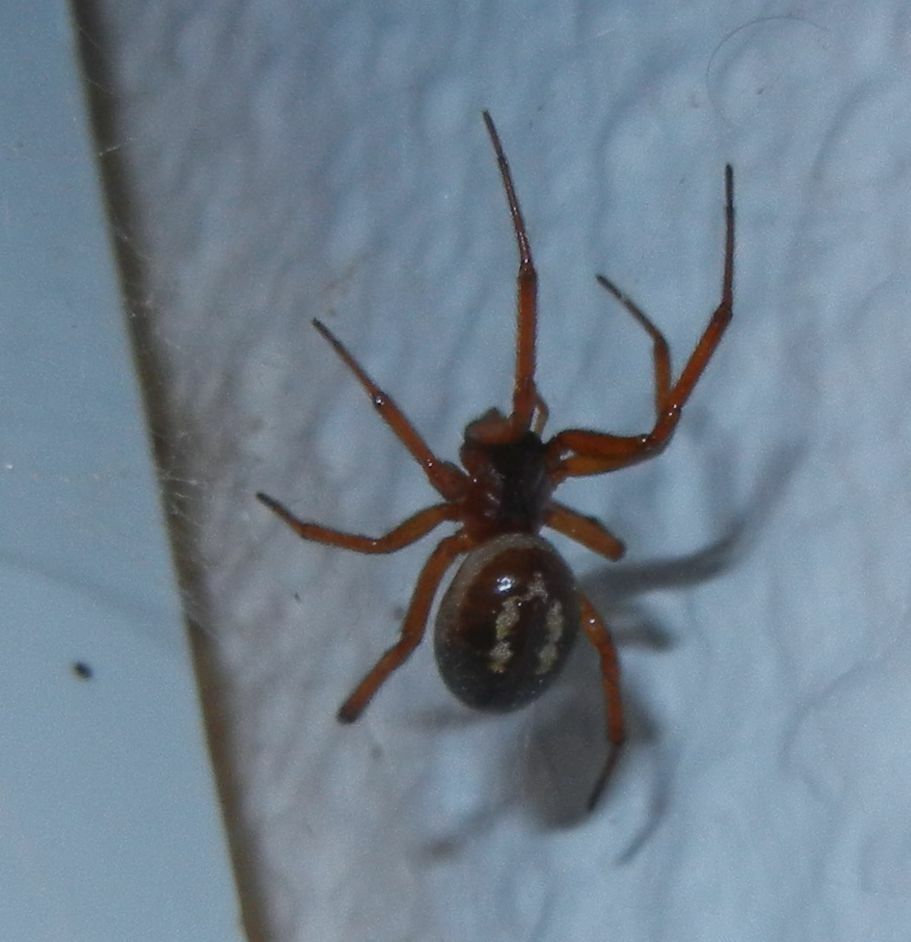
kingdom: Animalia
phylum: Arthropoda
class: Arachnida
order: Araneae
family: Theridiidae
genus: Steatoda
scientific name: Steatoda nobilis
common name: Cobweb weaver
